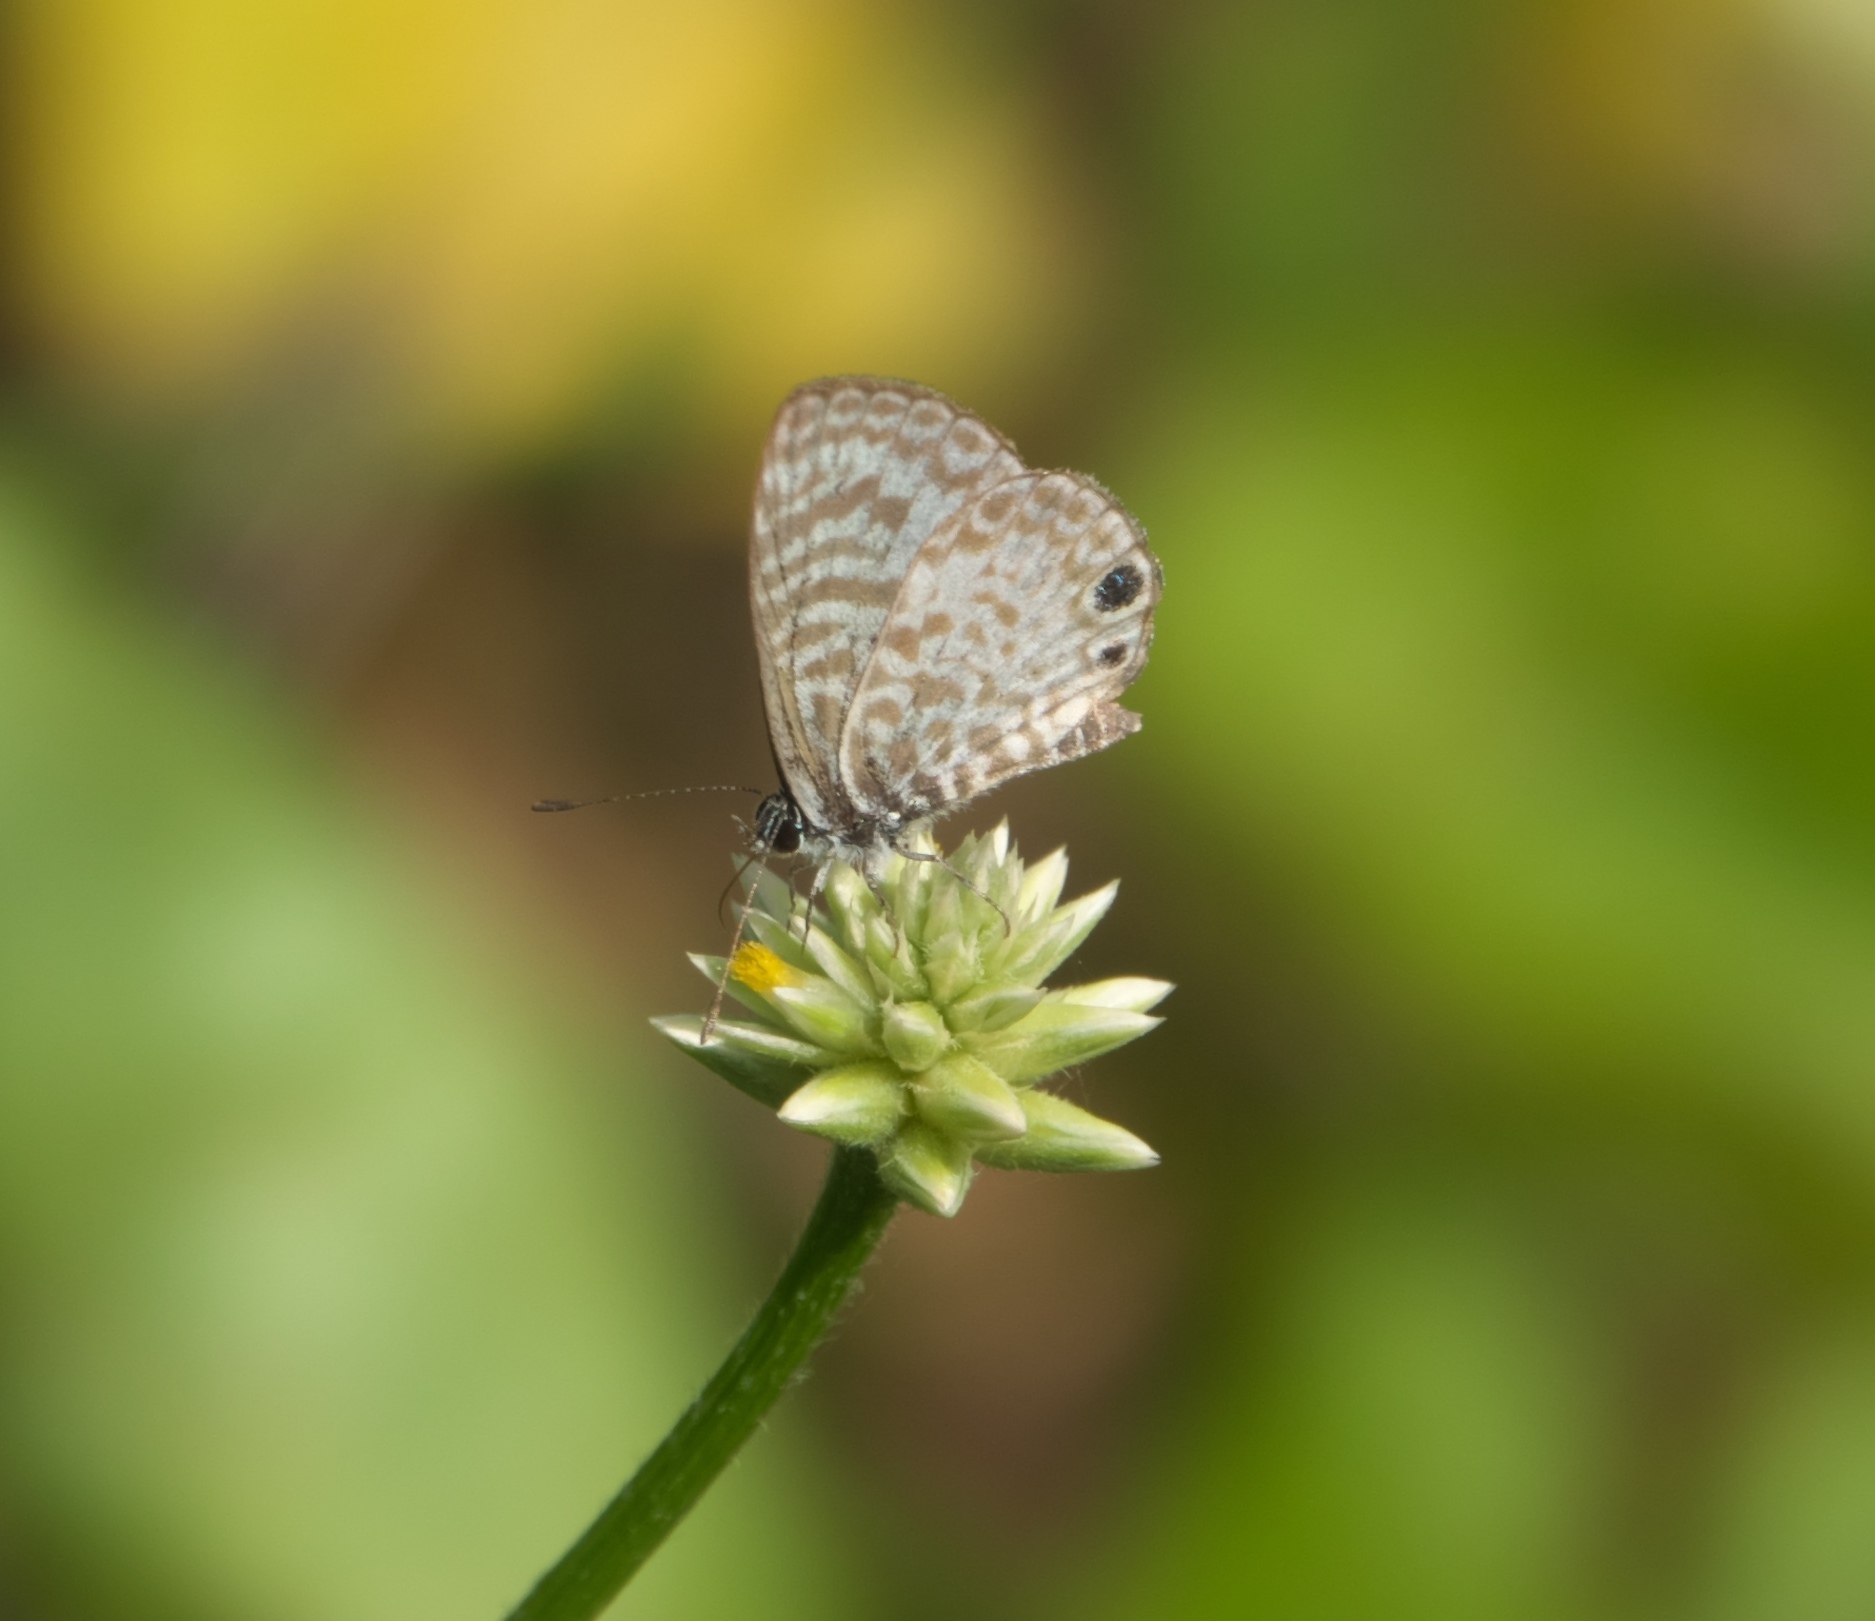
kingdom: Animalia
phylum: Arthropoda
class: Insecta
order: Lepidoptera
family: Lycaenidae
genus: Leptotes
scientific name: Leptotes cassius
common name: Cassius blue
